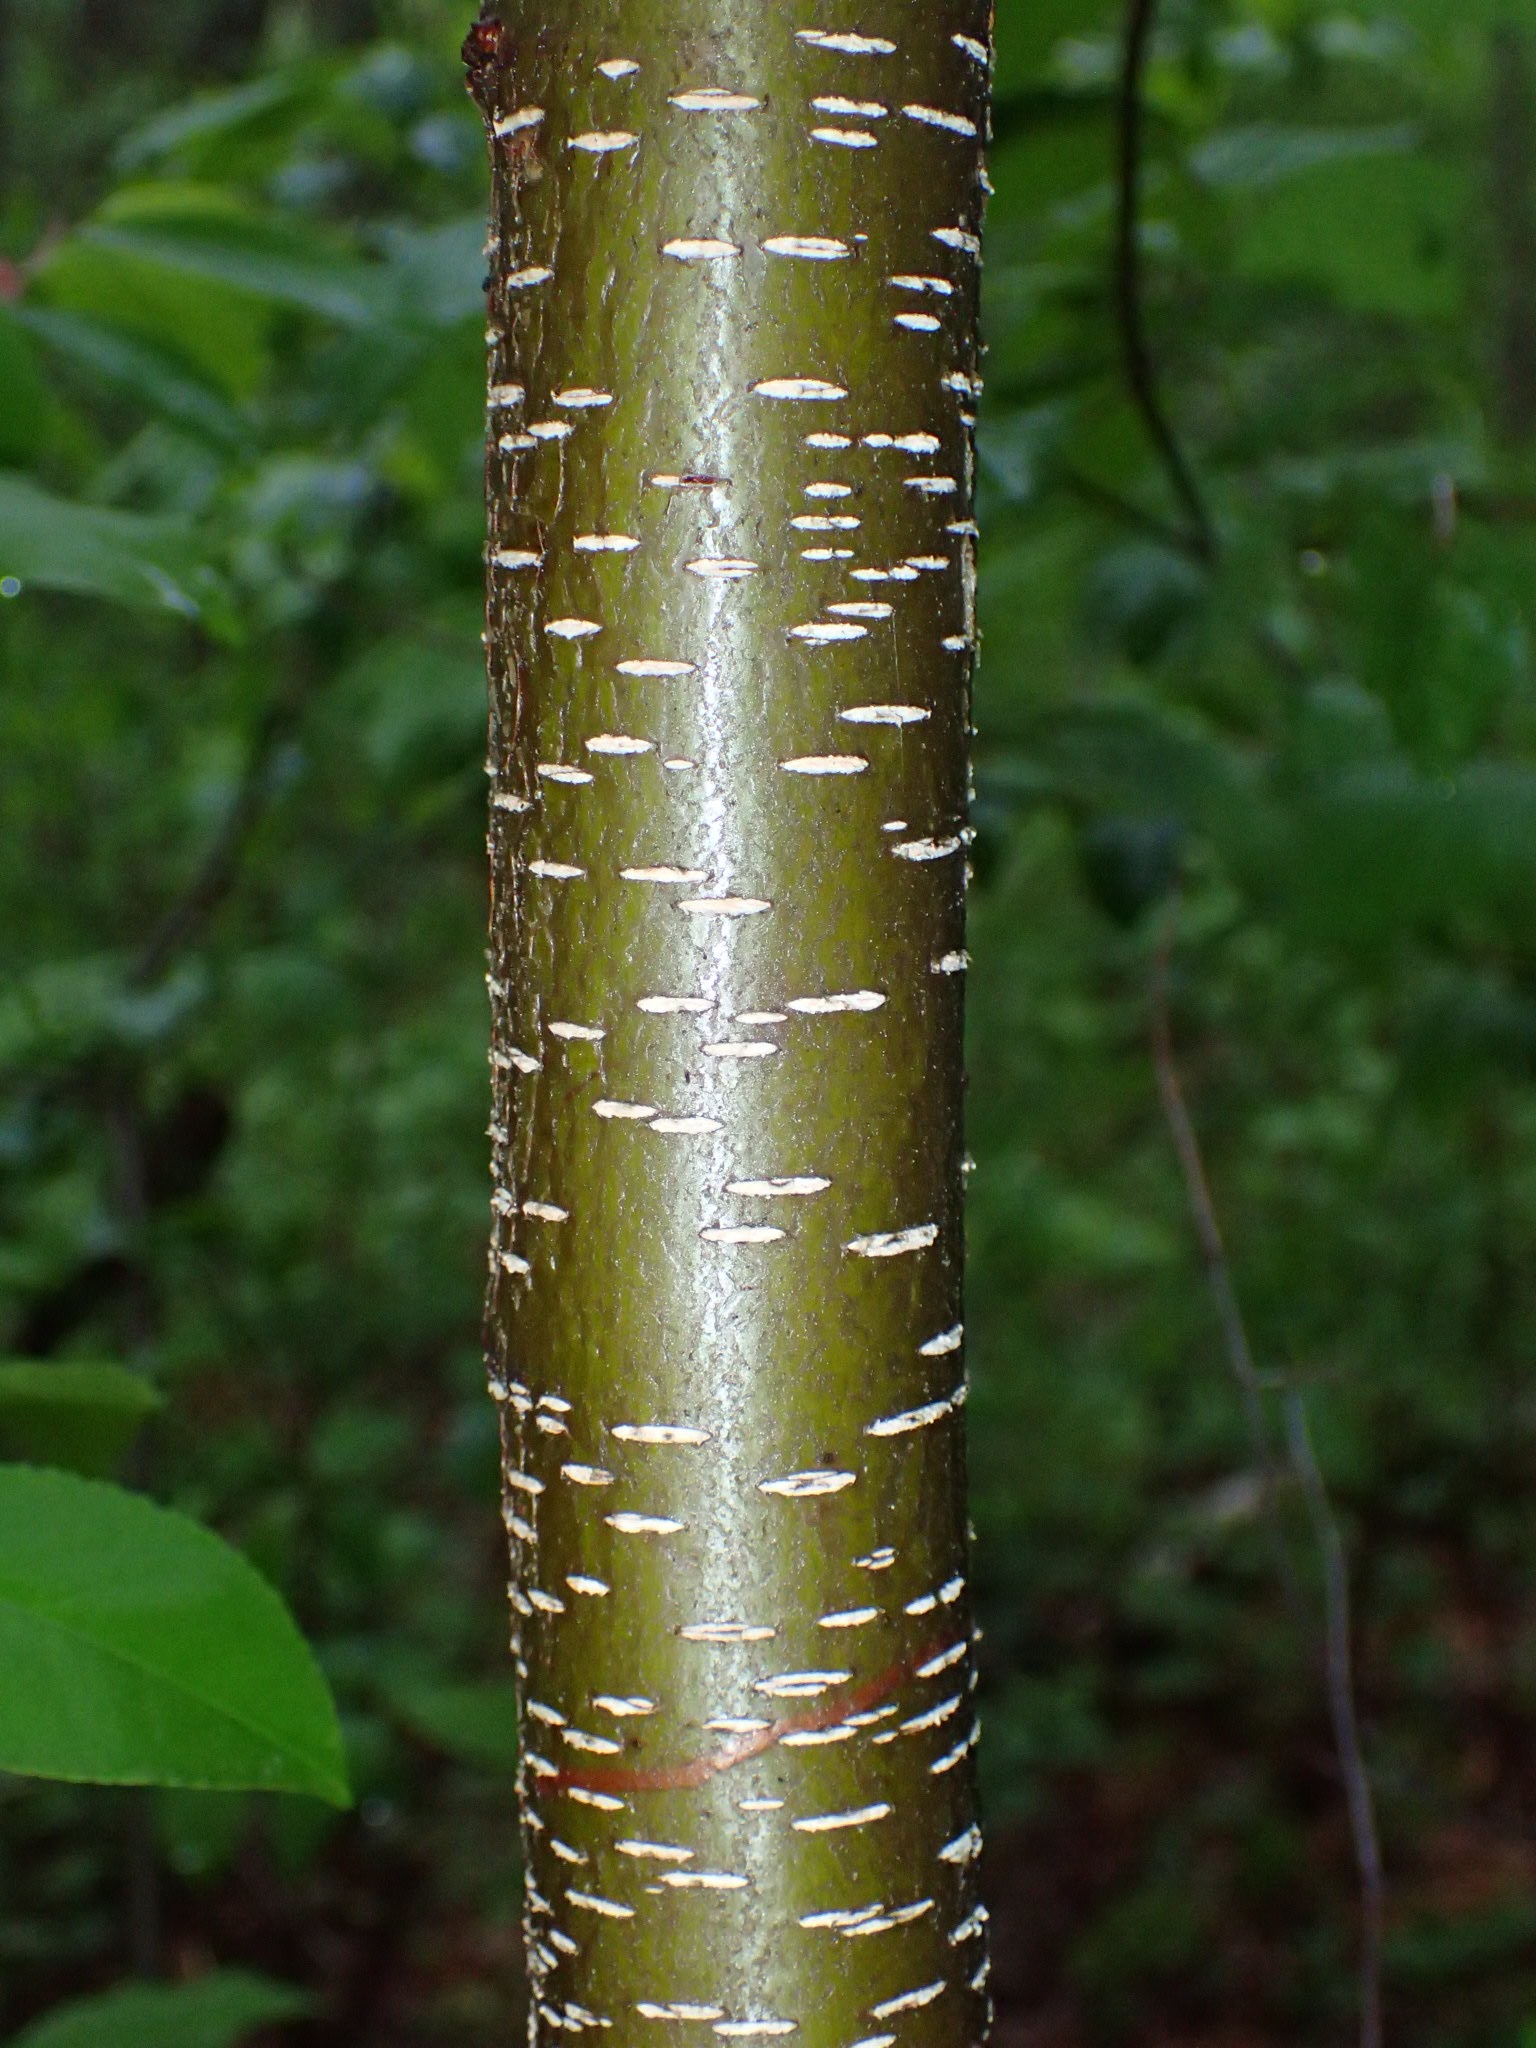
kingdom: Plantae
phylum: Tracheophyta
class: Magnoliopsida
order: Rosales
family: Rosaceae
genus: Prunus
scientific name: Prunus serotina
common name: Black cherry
